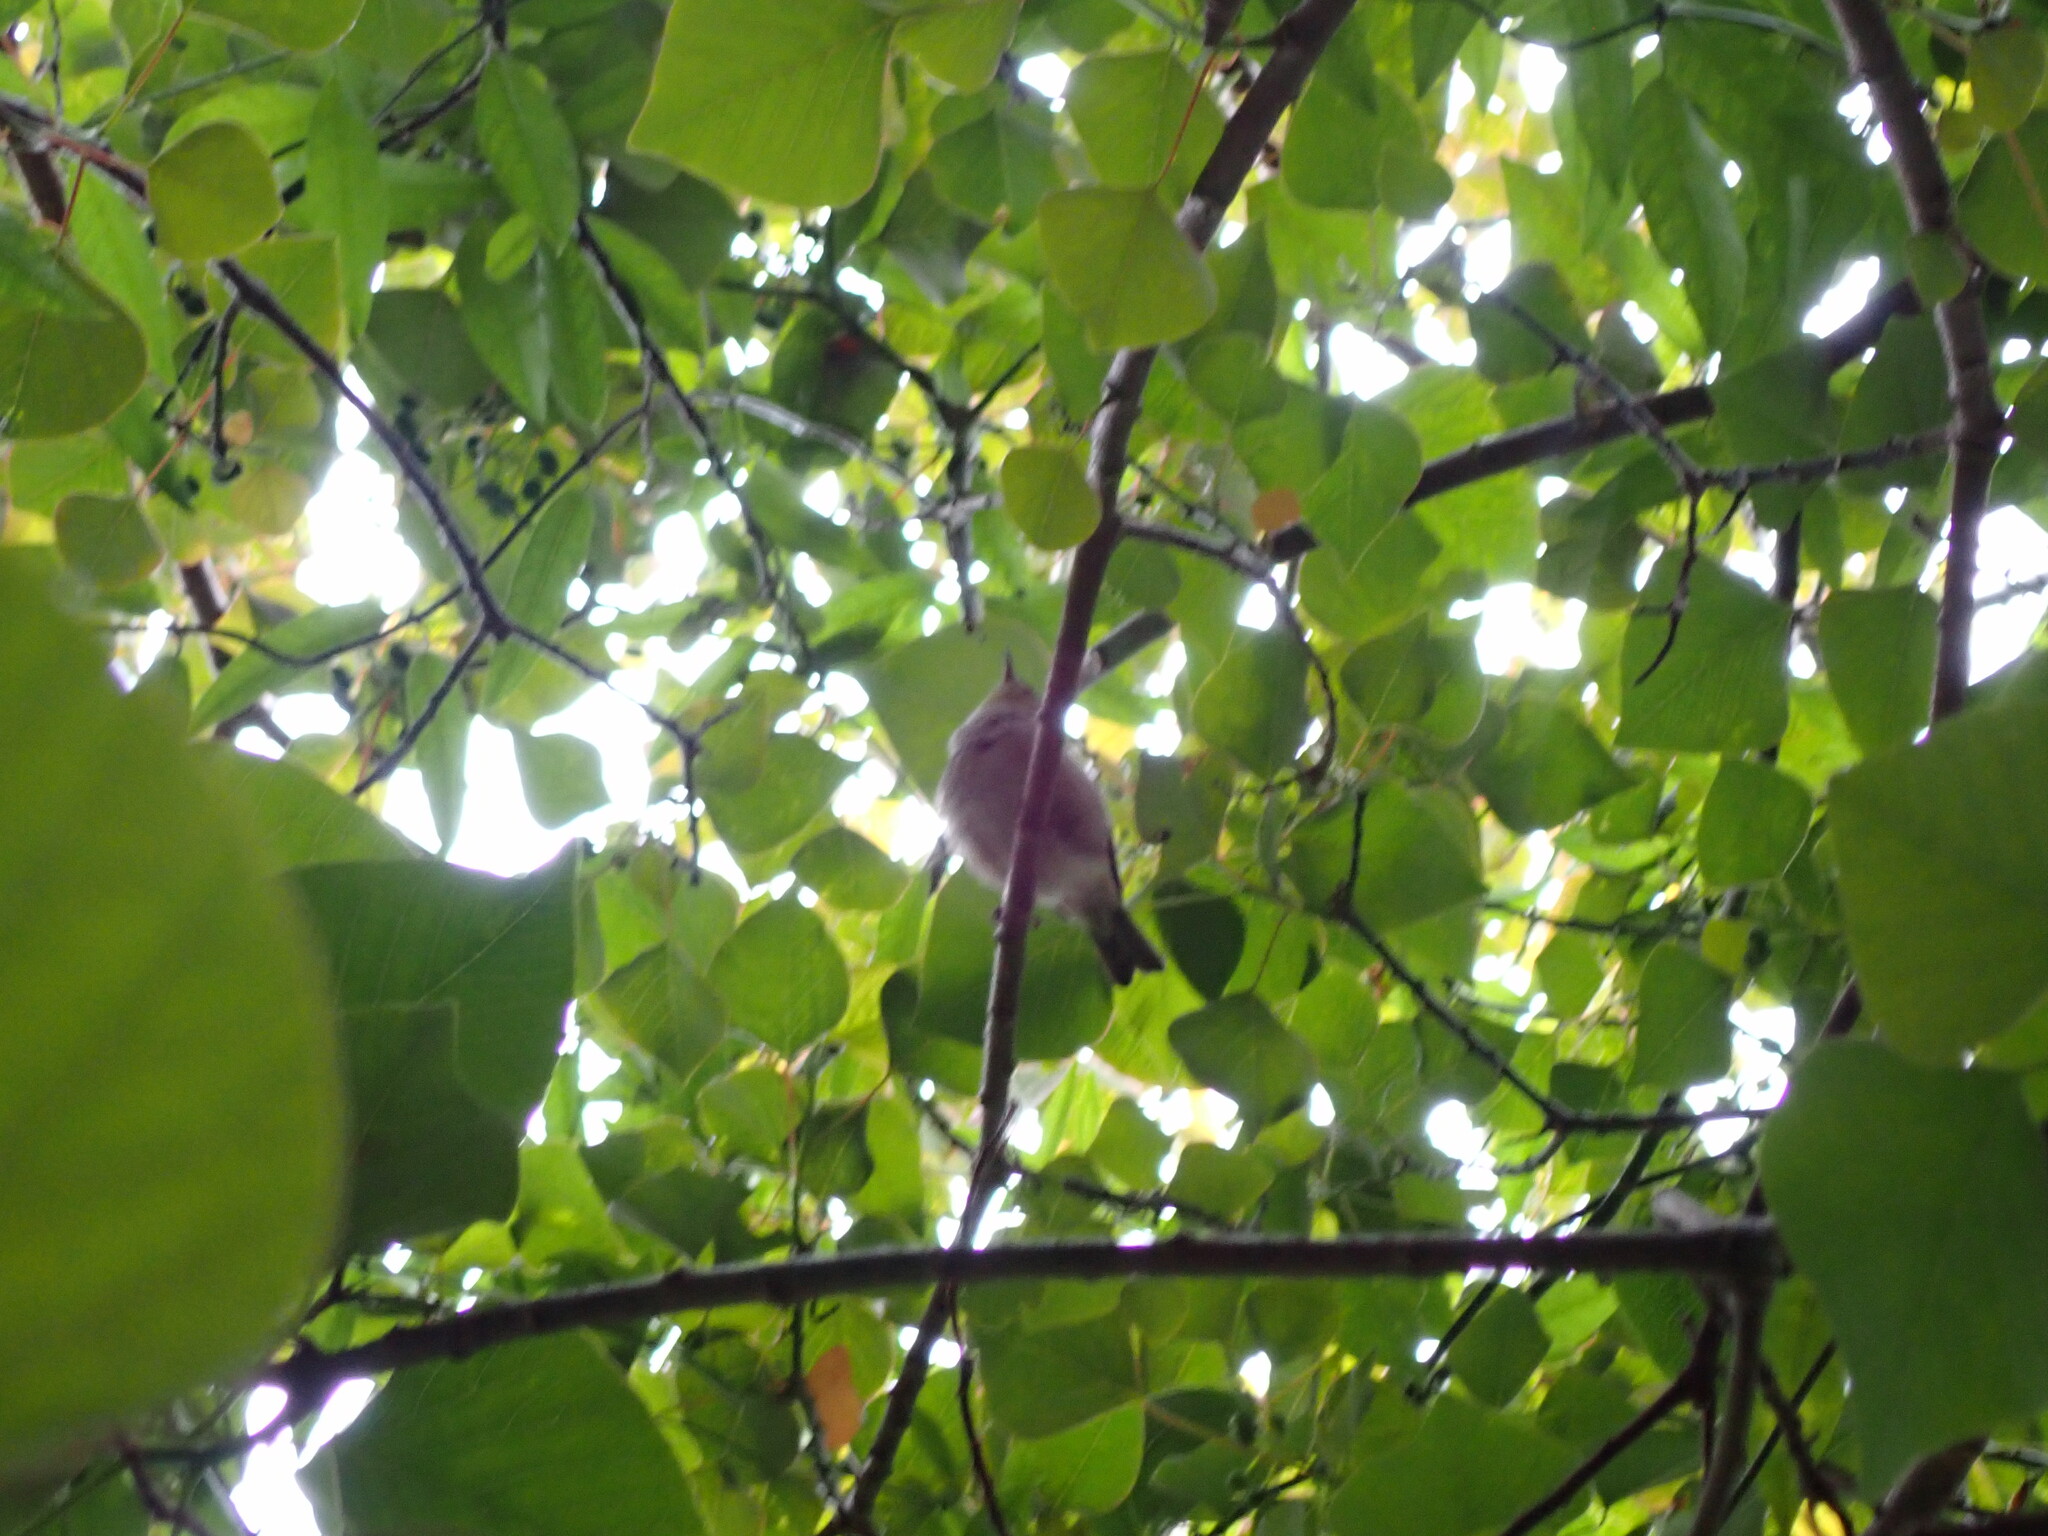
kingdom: Animalia
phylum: Chordata
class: Aves
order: Passeriformes
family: Zosteropidae
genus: Zosterops
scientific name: Zosterops lateralis
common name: Silvereye
